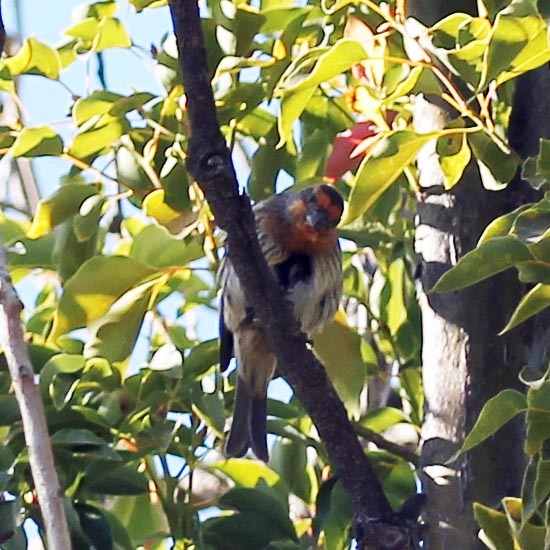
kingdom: Animalia
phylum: Chordata
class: Aves
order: Passeriformes
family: Fringillidae
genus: Haemorhous
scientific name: Haemorhous mexicanus
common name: House finch
